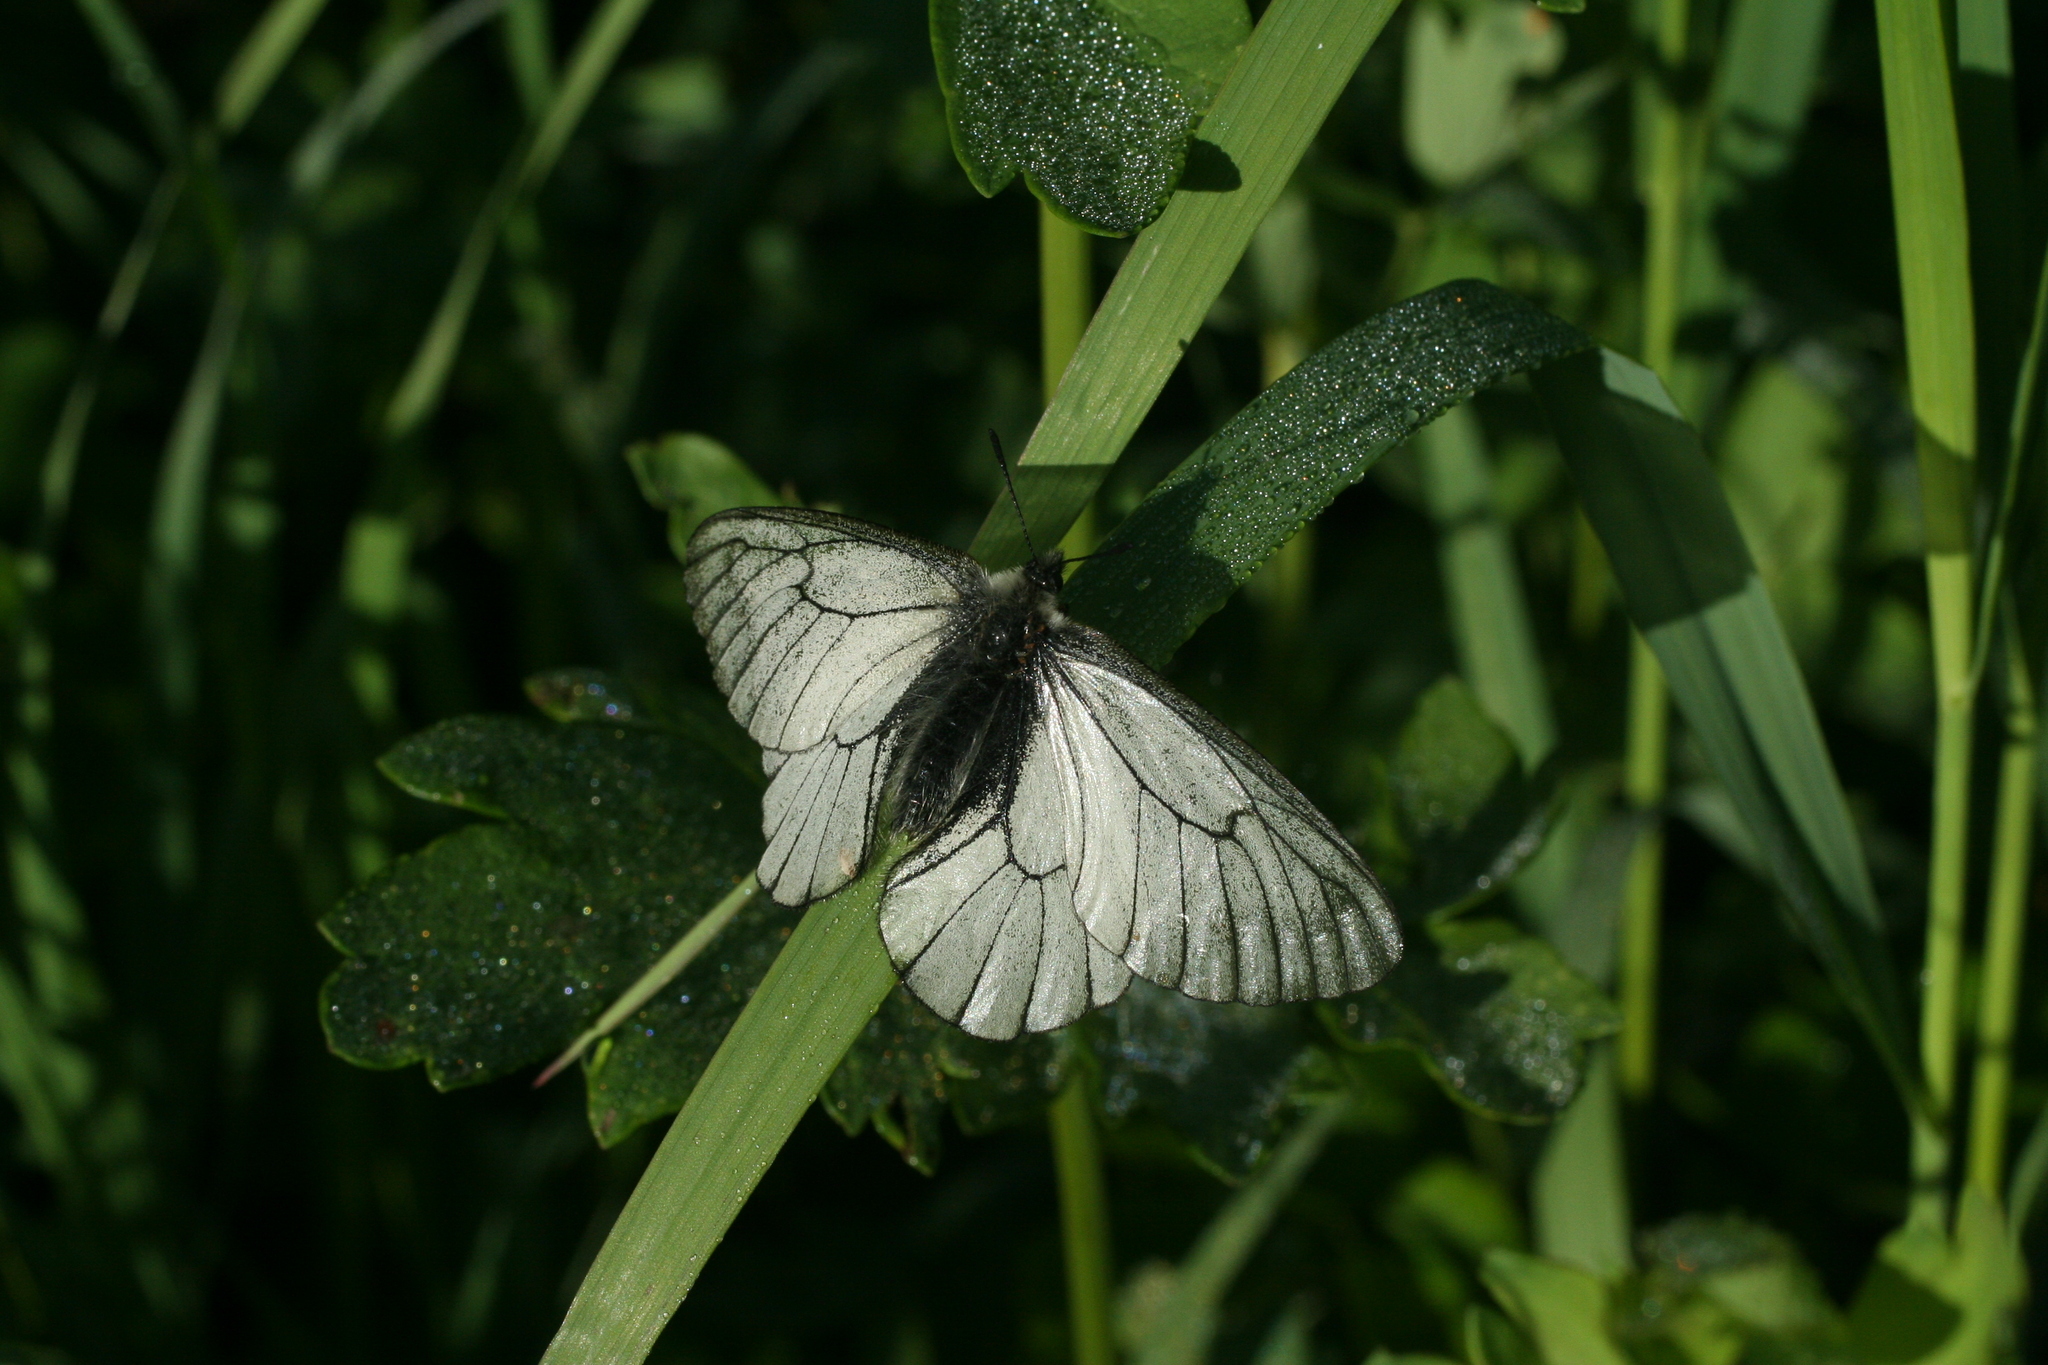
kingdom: Animalia
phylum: Arthropoda
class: Insecta
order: Lepidoptera
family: Papilionidae
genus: Parnassius
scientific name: Parnassius stubbendorfii
